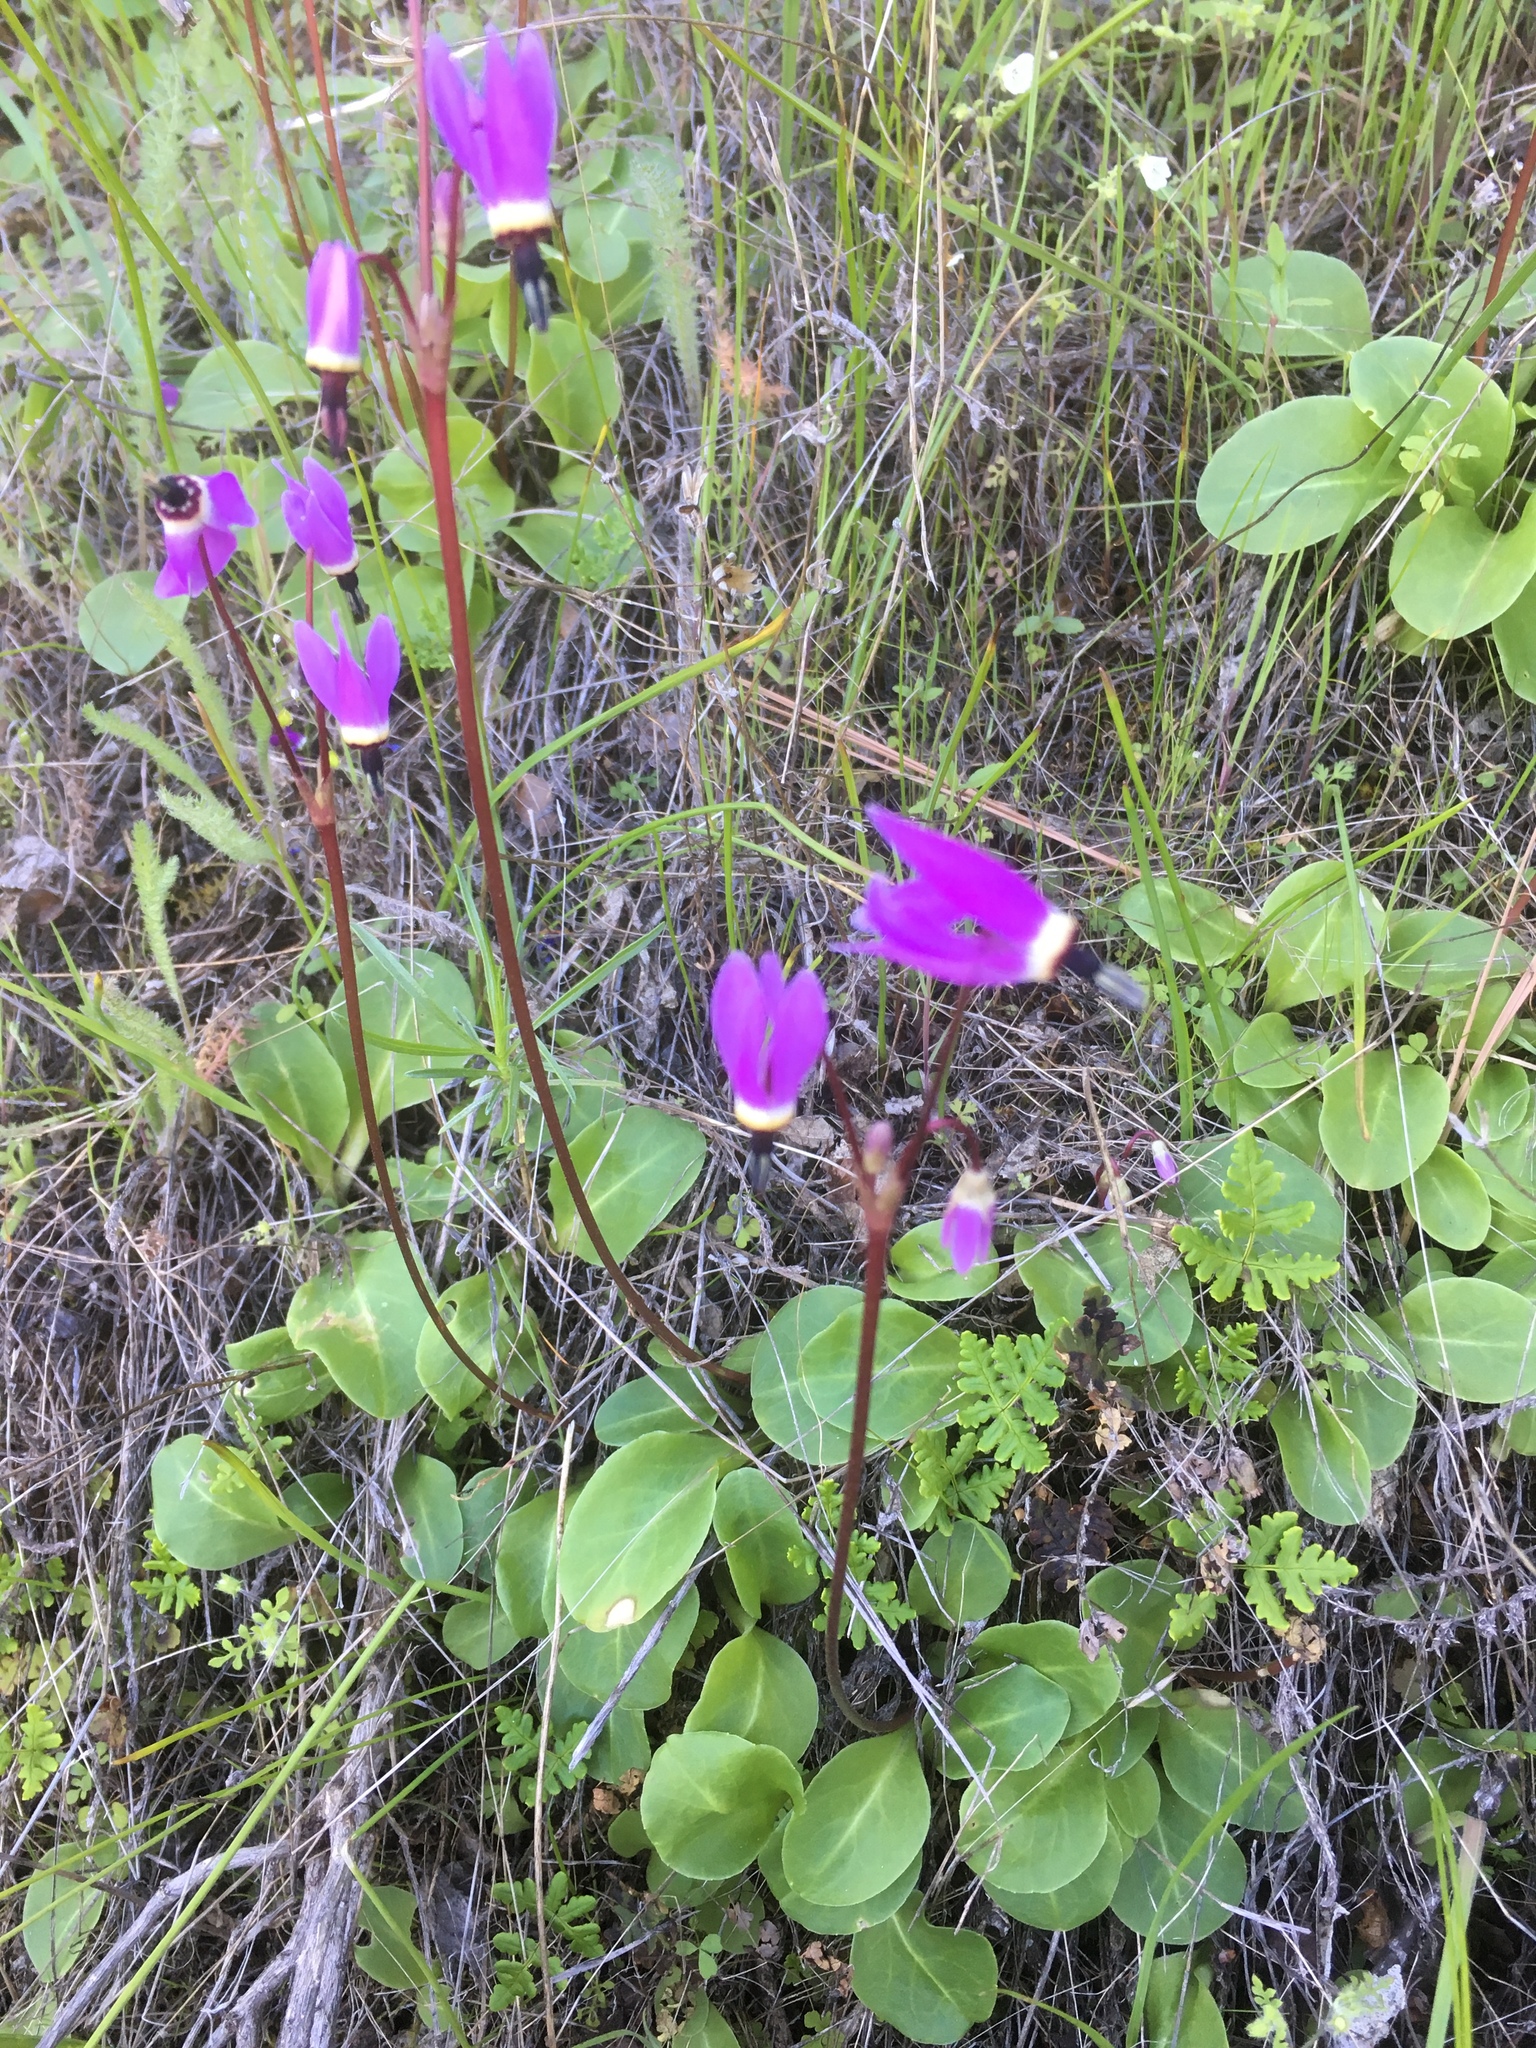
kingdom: Plantae
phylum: Tracheophyta
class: Magnoliopsida
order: Ericales
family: Primulaceae
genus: Dodecatheon
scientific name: Dodecatheon hendersonii
